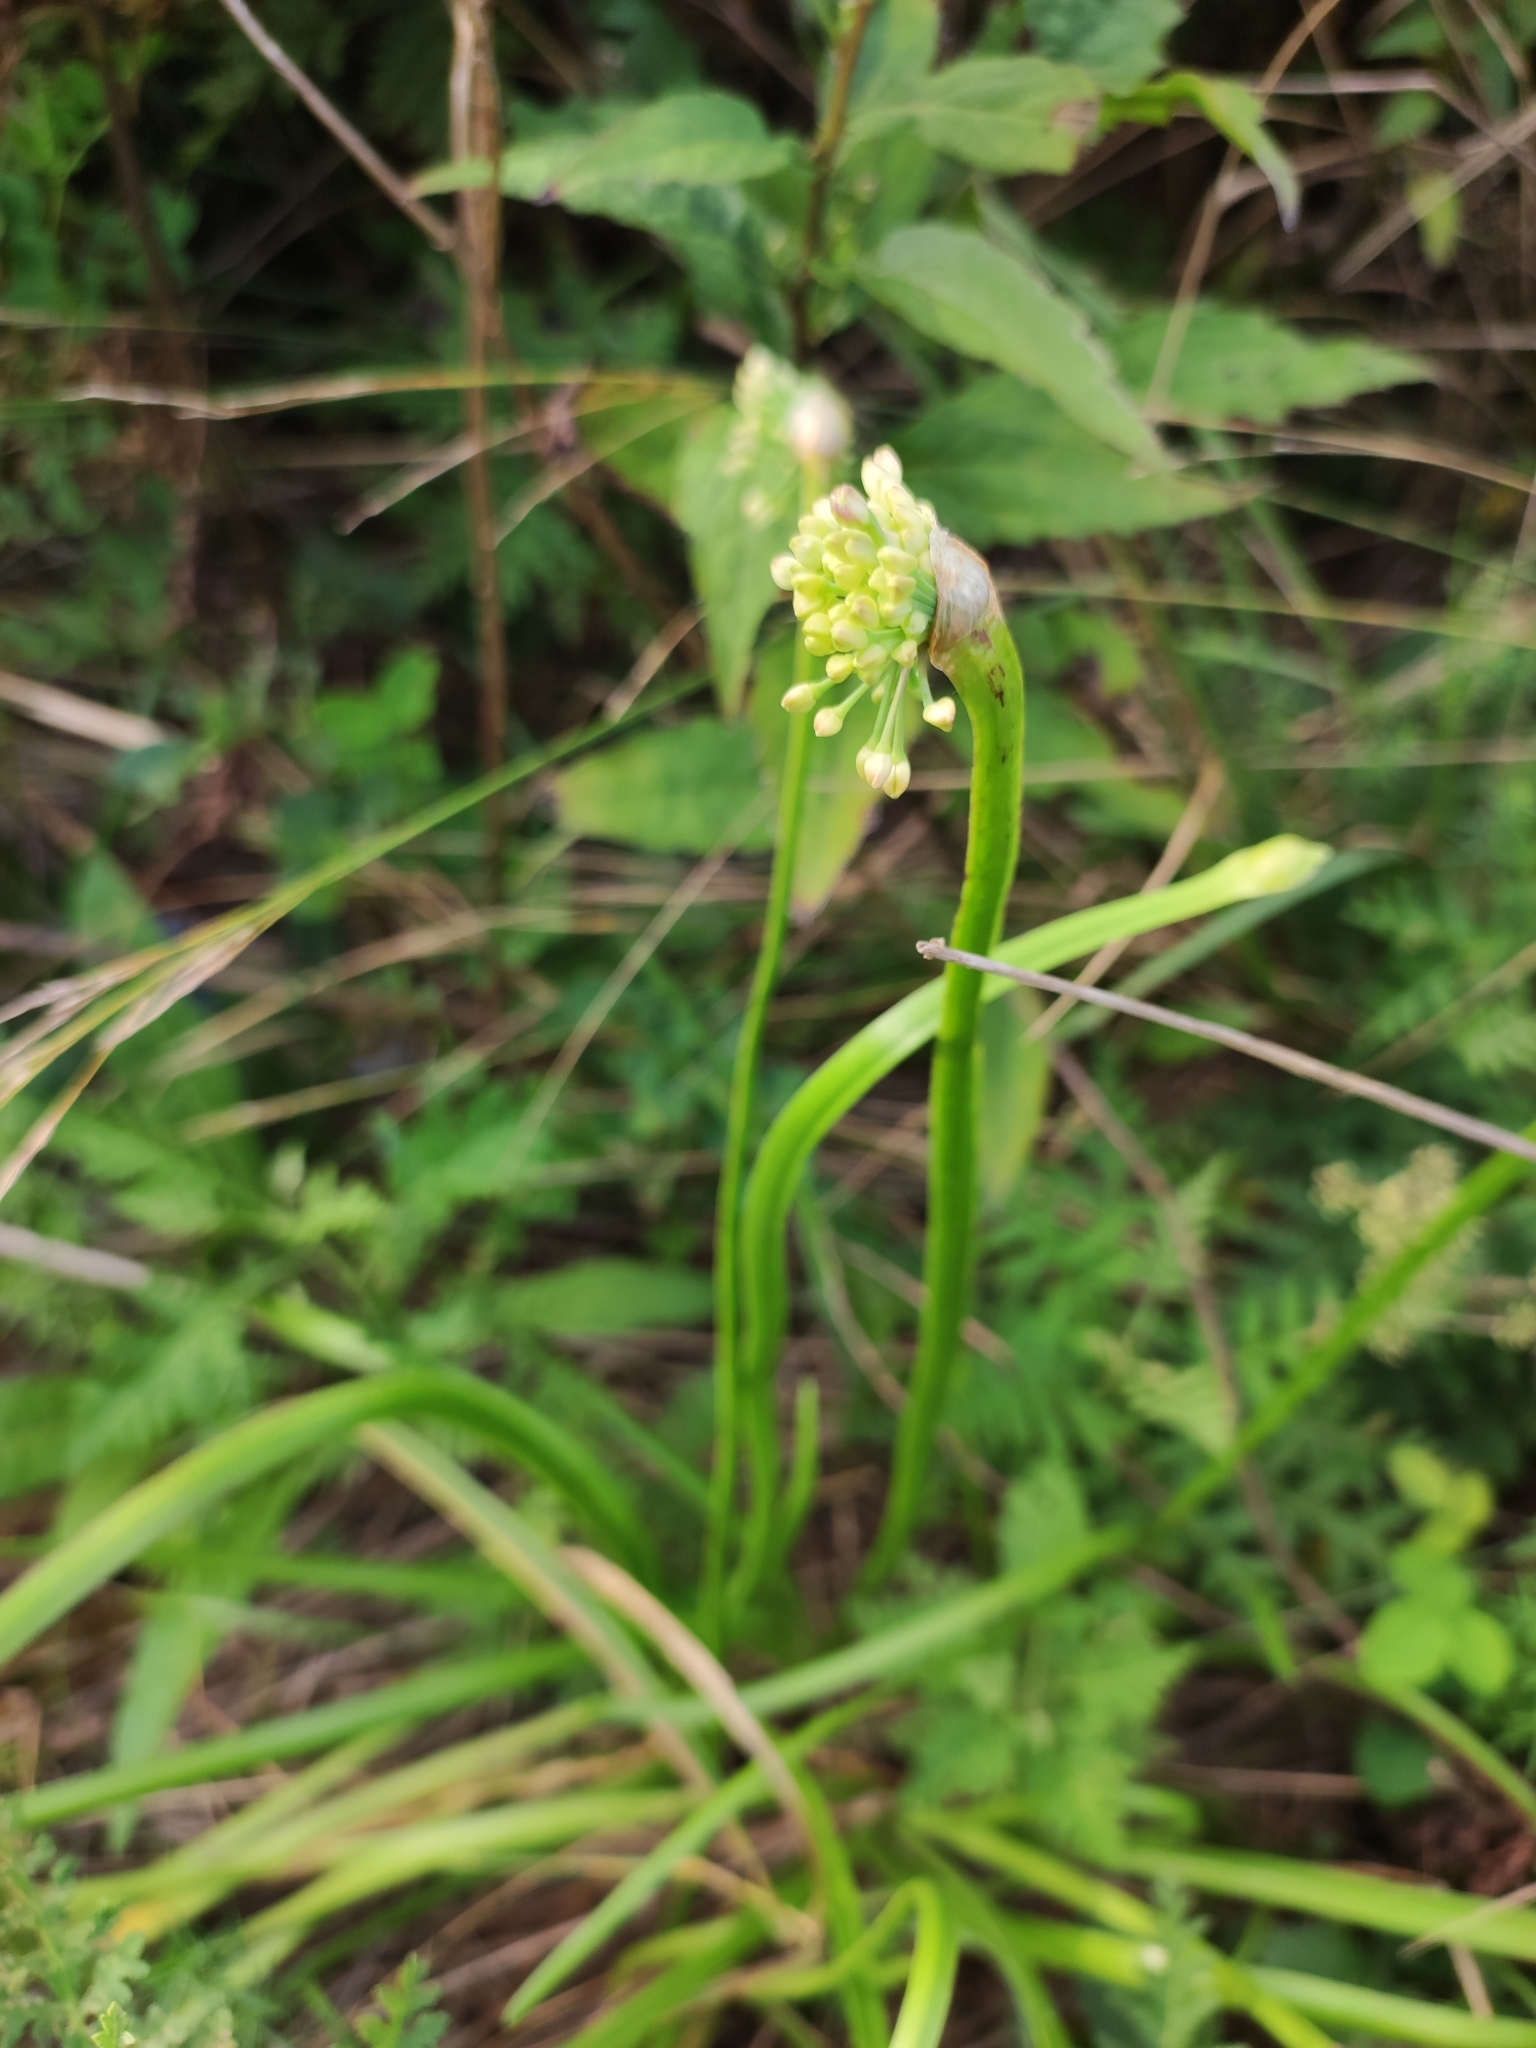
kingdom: Plantae
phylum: Tracheophyta
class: Liliopsida
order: Asparagales
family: Amaryllidaceae
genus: Allium
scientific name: Allium spirale
